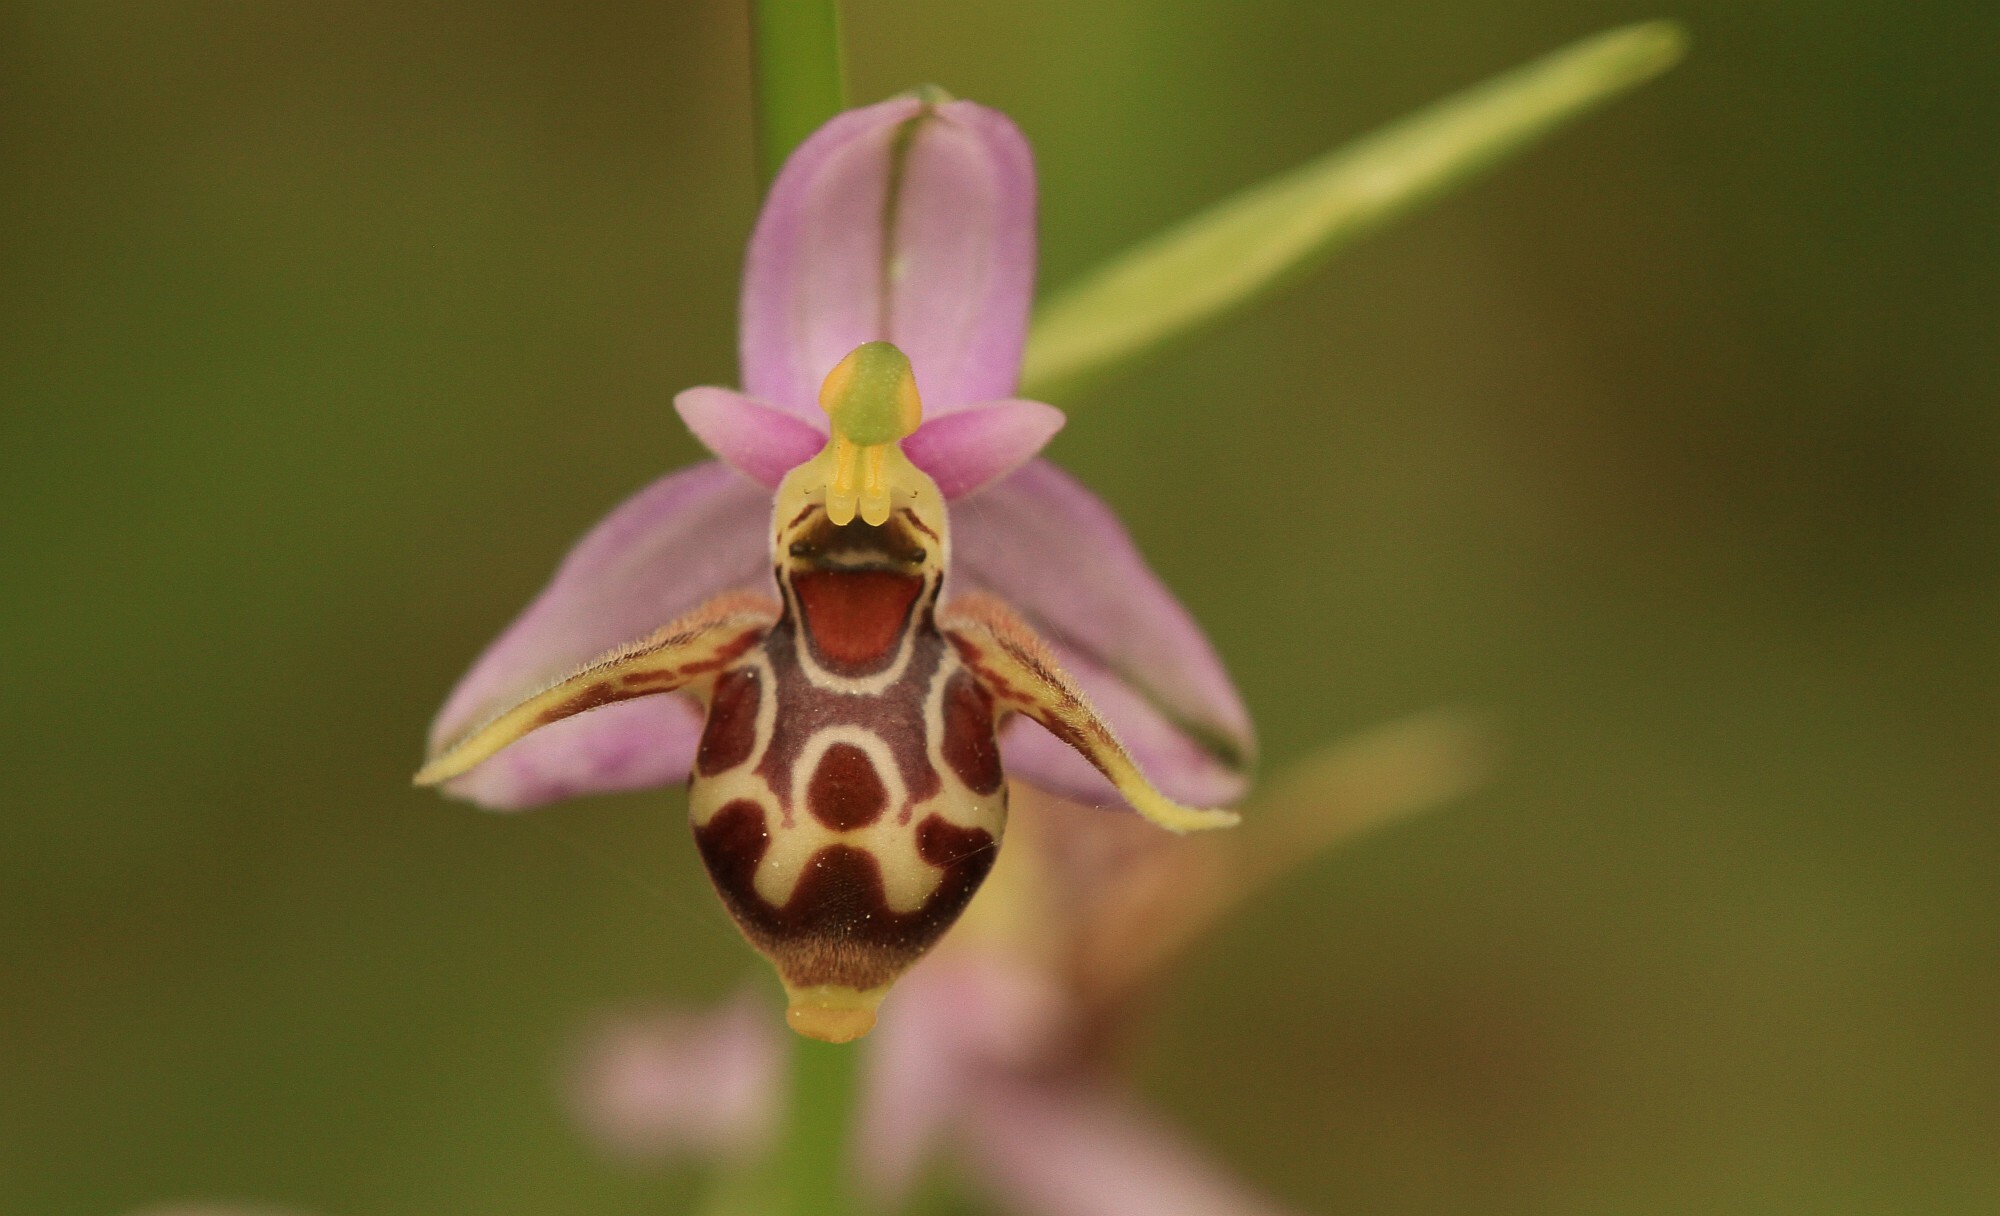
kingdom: Plantae
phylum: Tracheophyta
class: Liliopsida
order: Asparagales
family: Orchidaceae
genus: Ophrys
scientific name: Ophrys
